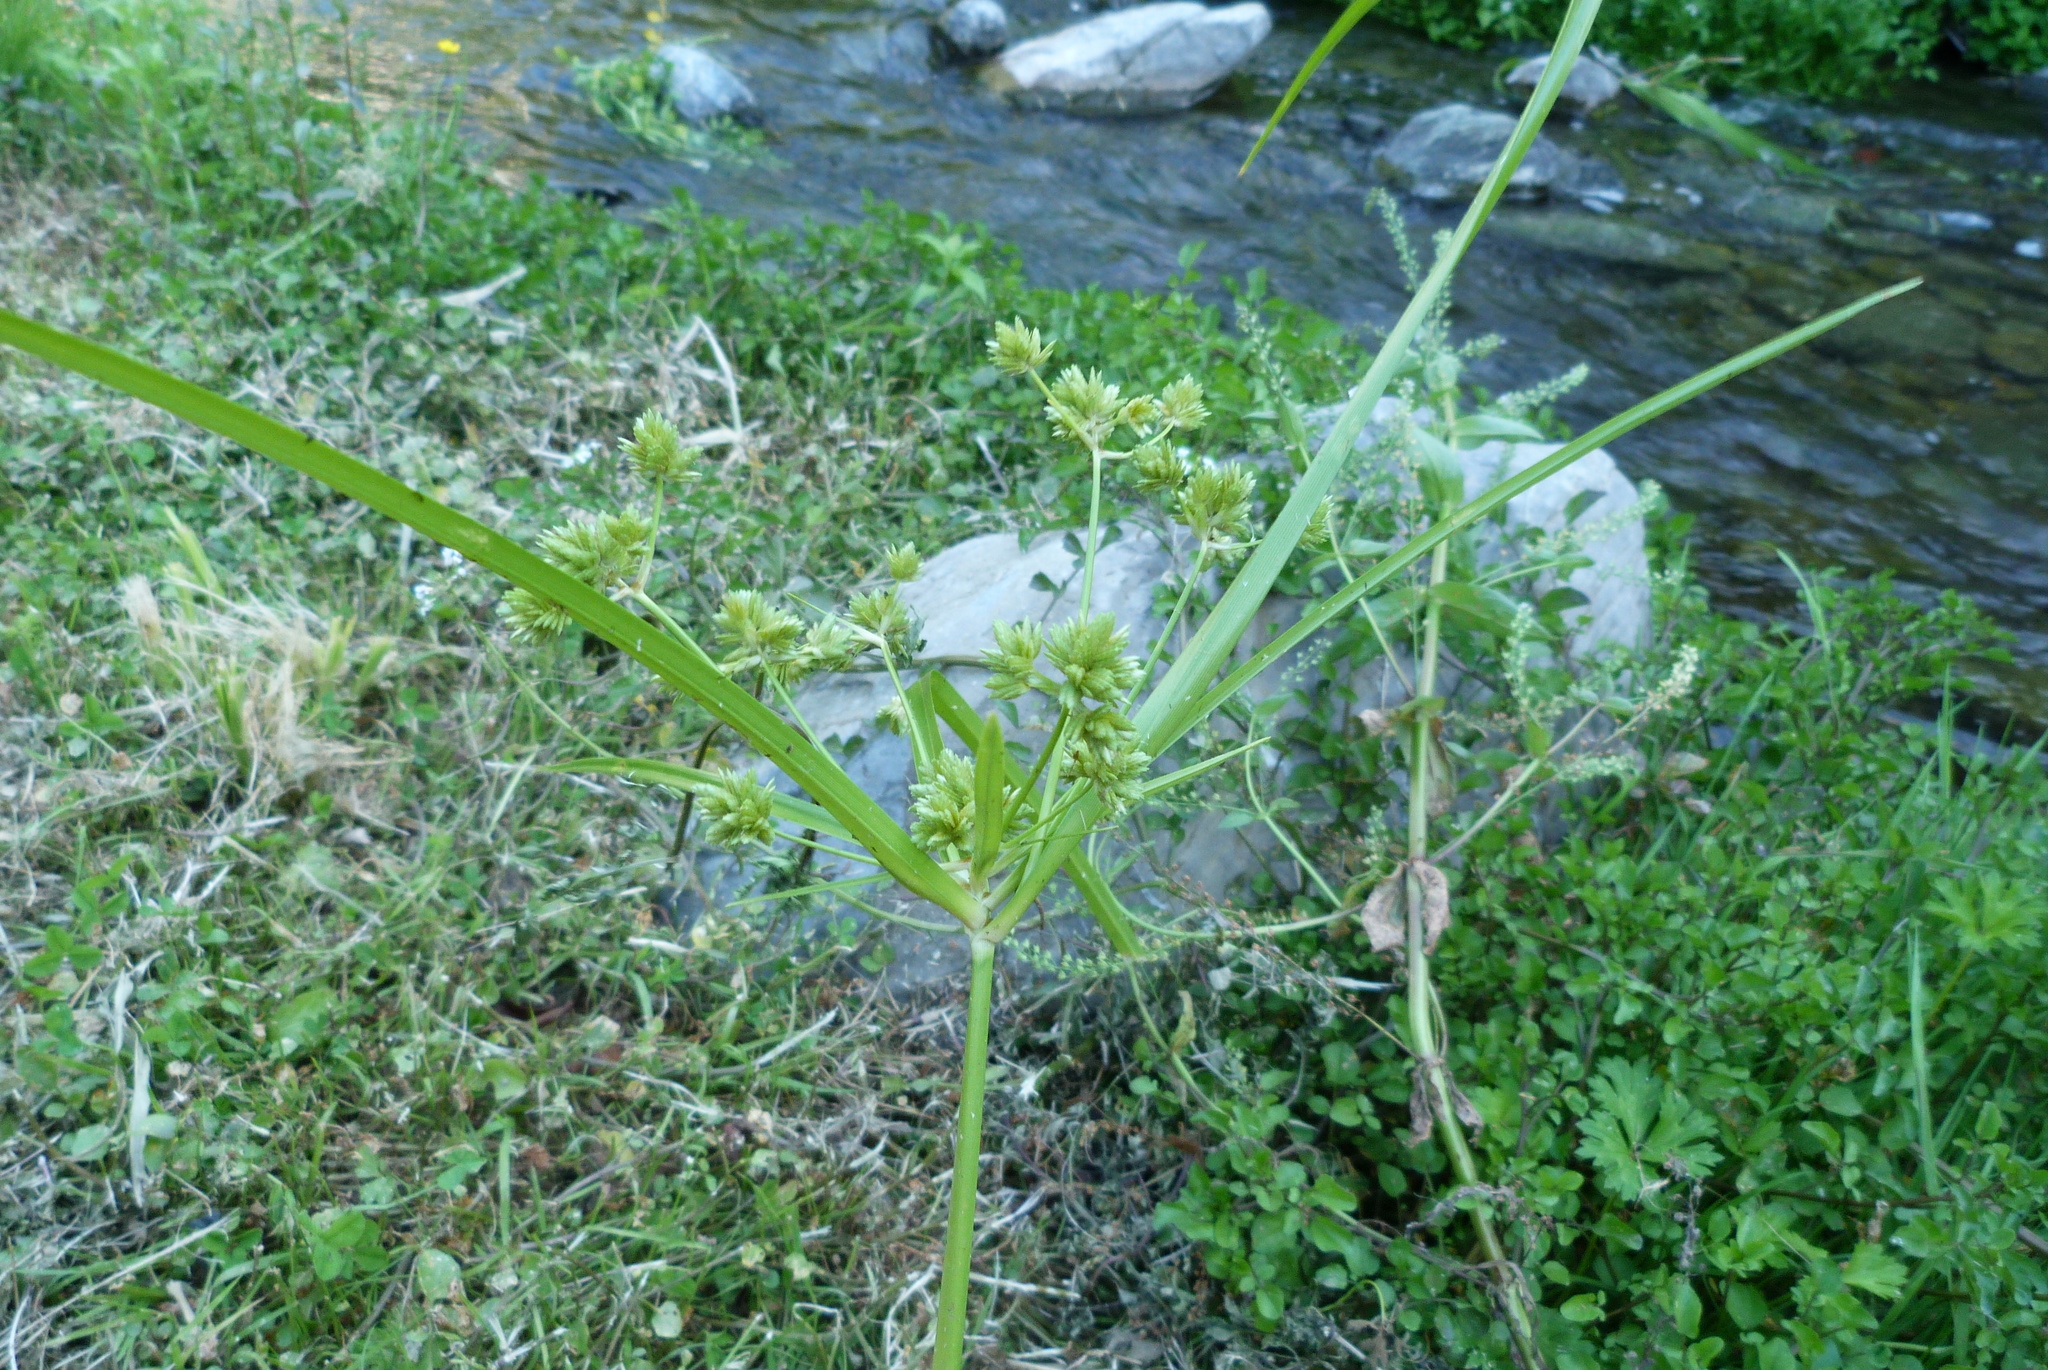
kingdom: Plantae
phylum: Tracheophyta
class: Liliopsida
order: Poales
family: Cyperaceae
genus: Cyperus
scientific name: Cyperus eragrostis
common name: Tall flatsedge
